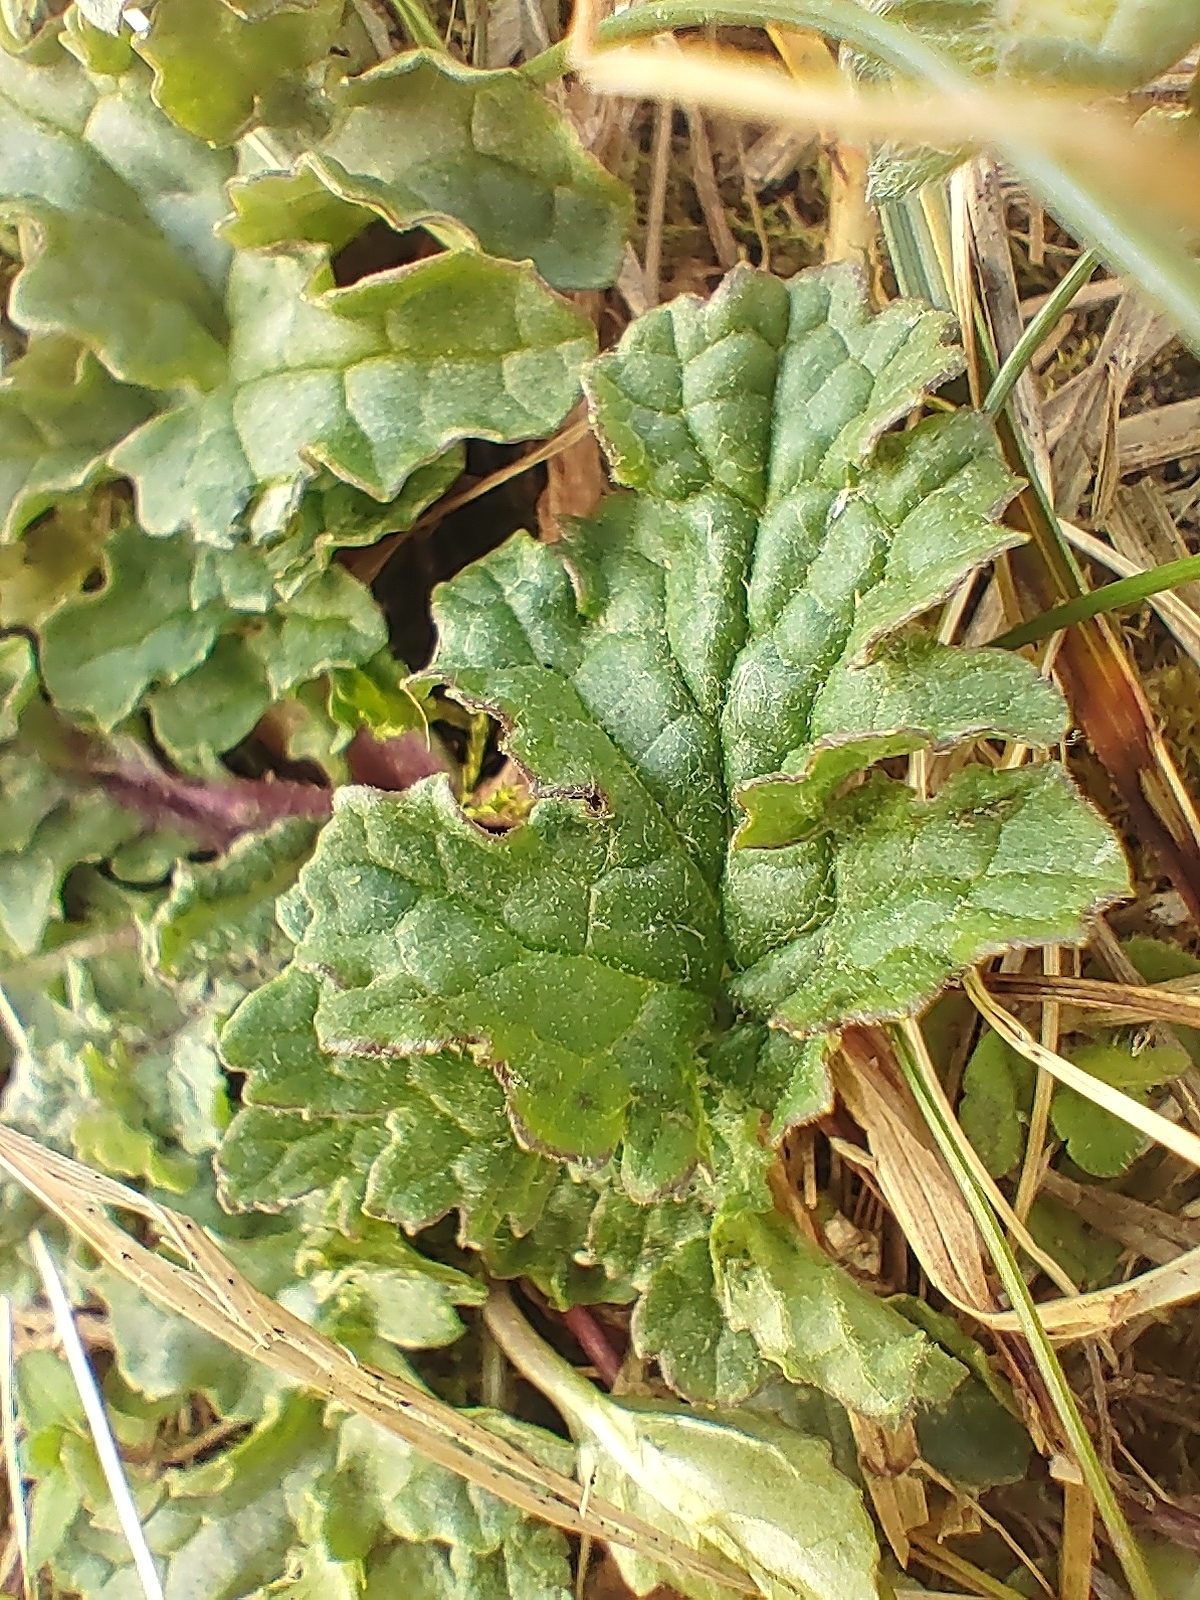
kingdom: Plantae
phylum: Tracheophyta
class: Magnoliopsida
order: Asterales
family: Asteraceae
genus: Jacobaea
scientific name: Jacobaea vulgaris
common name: Stinking willie
